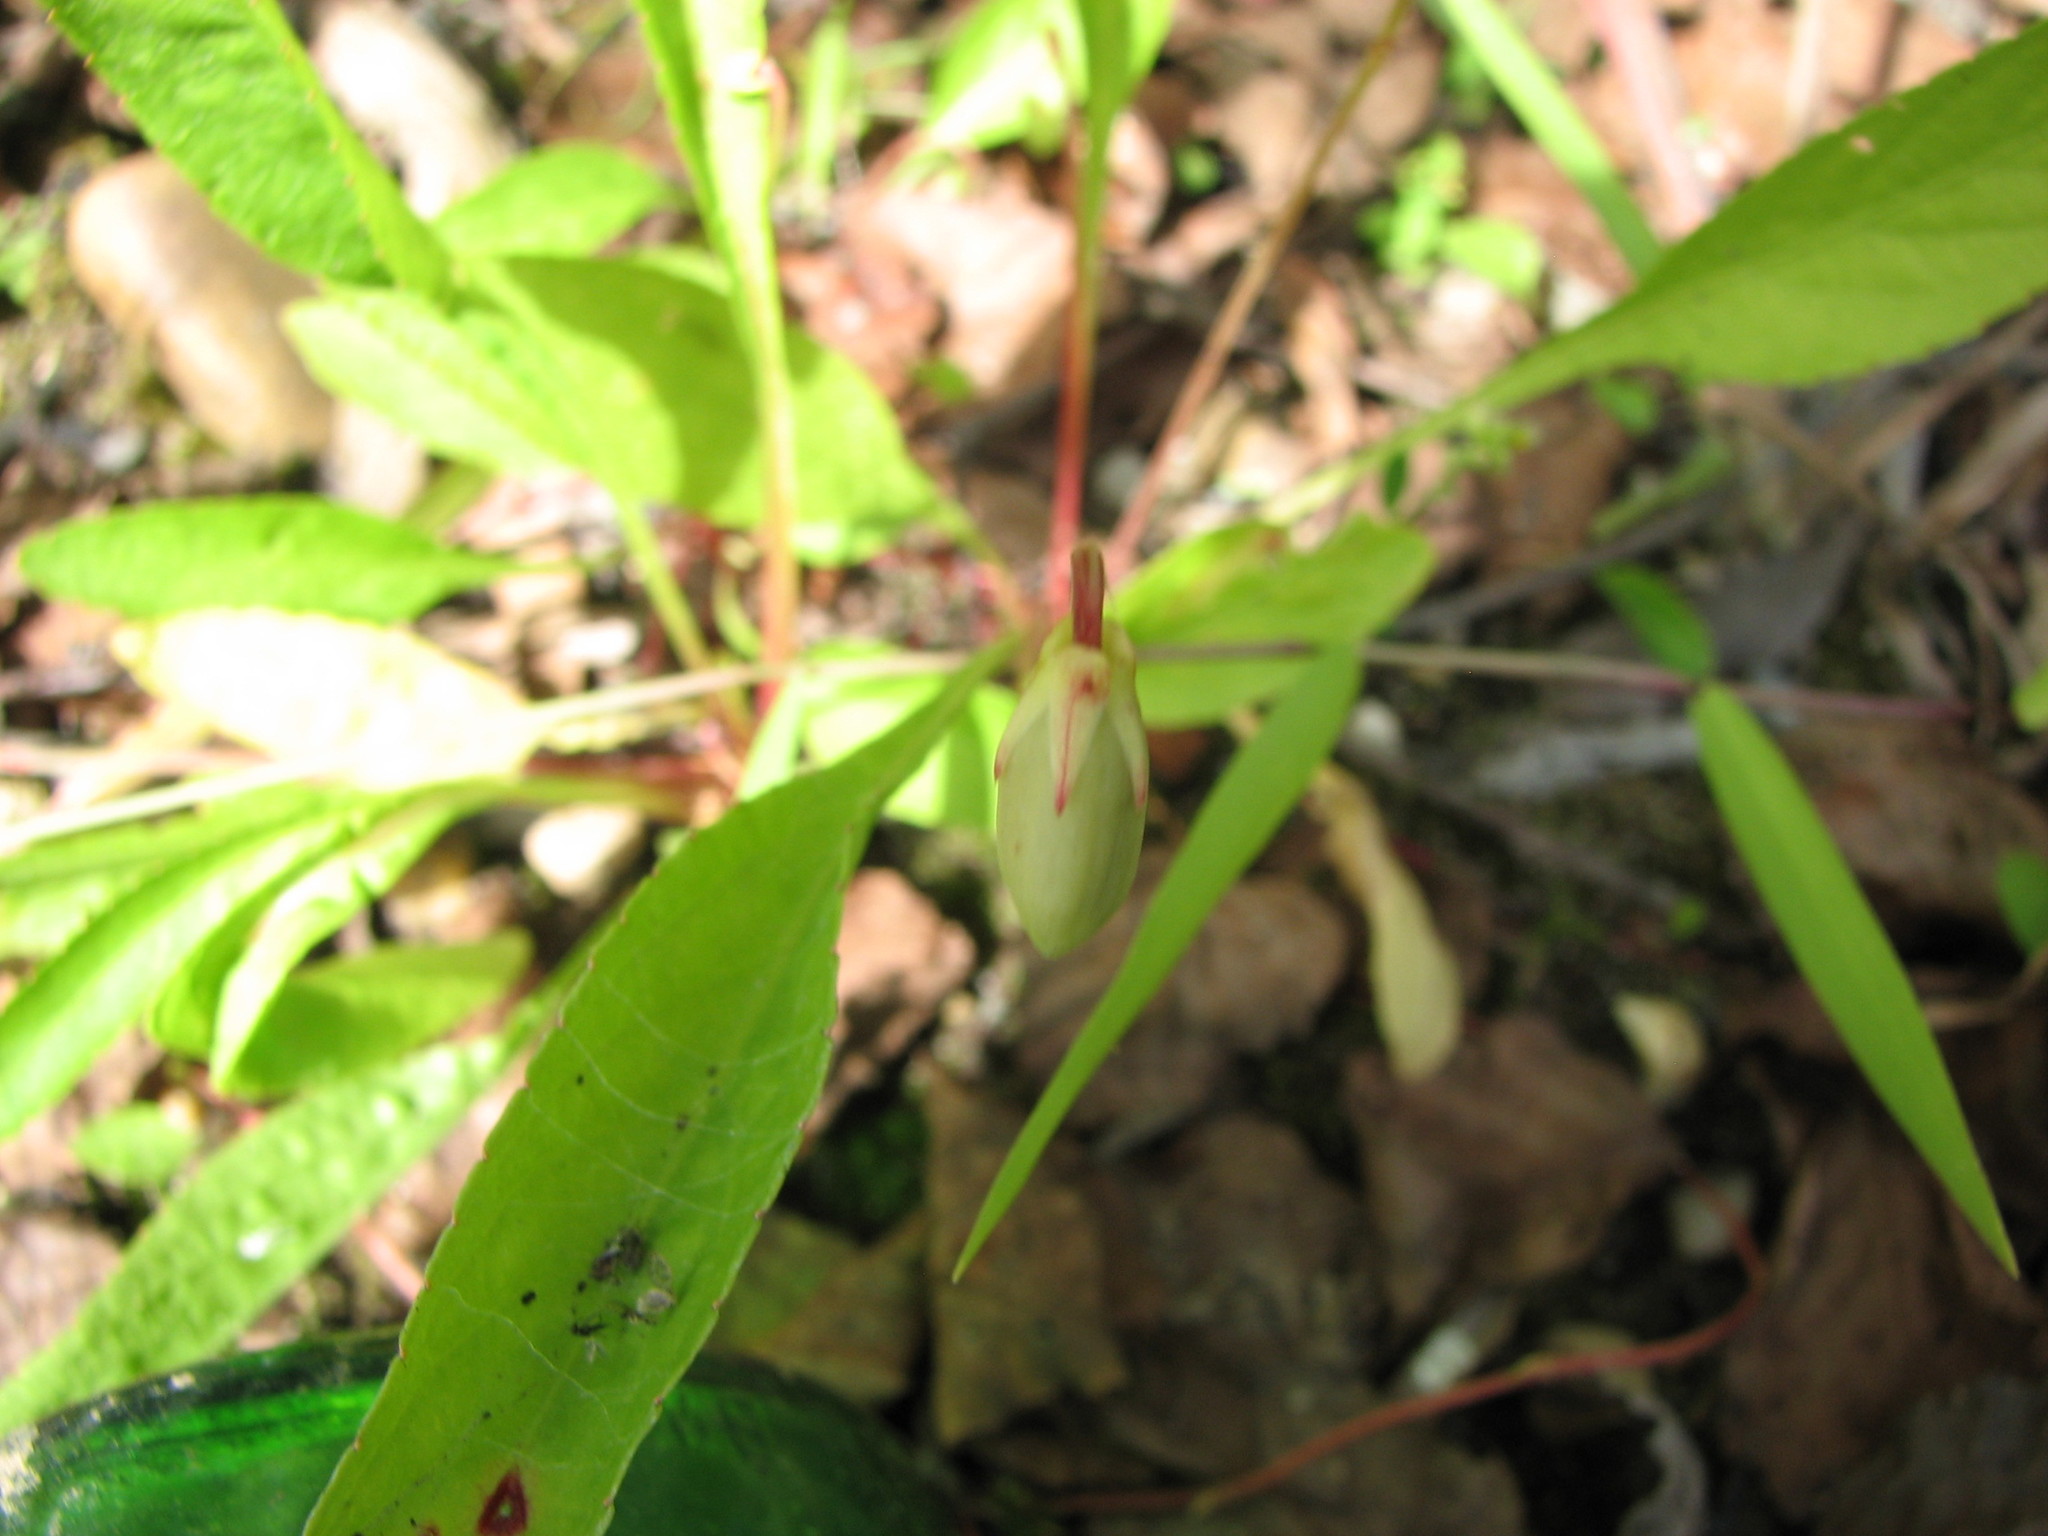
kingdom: Plantae
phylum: Tracheophyta
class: Magnoliopsida
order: Malpighiales
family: Violaceae
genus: Viola
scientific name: Viola lanceolata
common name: Bog white violet
